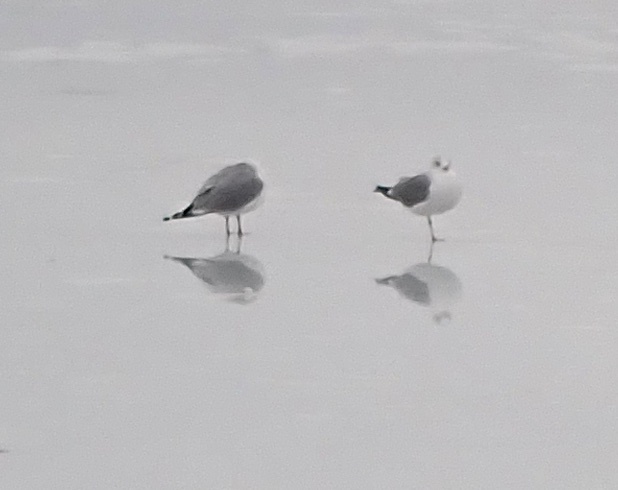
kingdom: Animalia
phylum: Chordata
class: Aves
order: Charadriiformes
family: Laridae
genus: Larus
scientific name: Larus argentatus
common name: Herring gull
